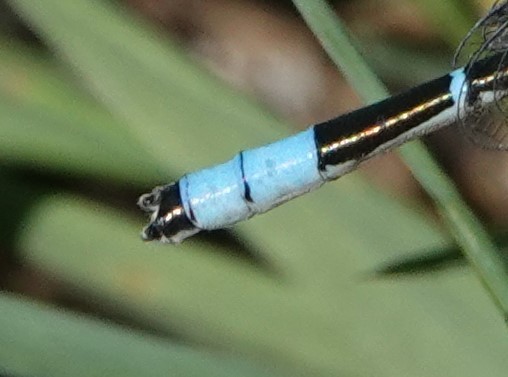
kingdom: Animalia
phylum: Arthropoda
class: Insecta
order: Odonata
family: Coenagrionidae
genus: Enallagma
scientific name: Enallagma carunculatum
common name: Tule bluet
